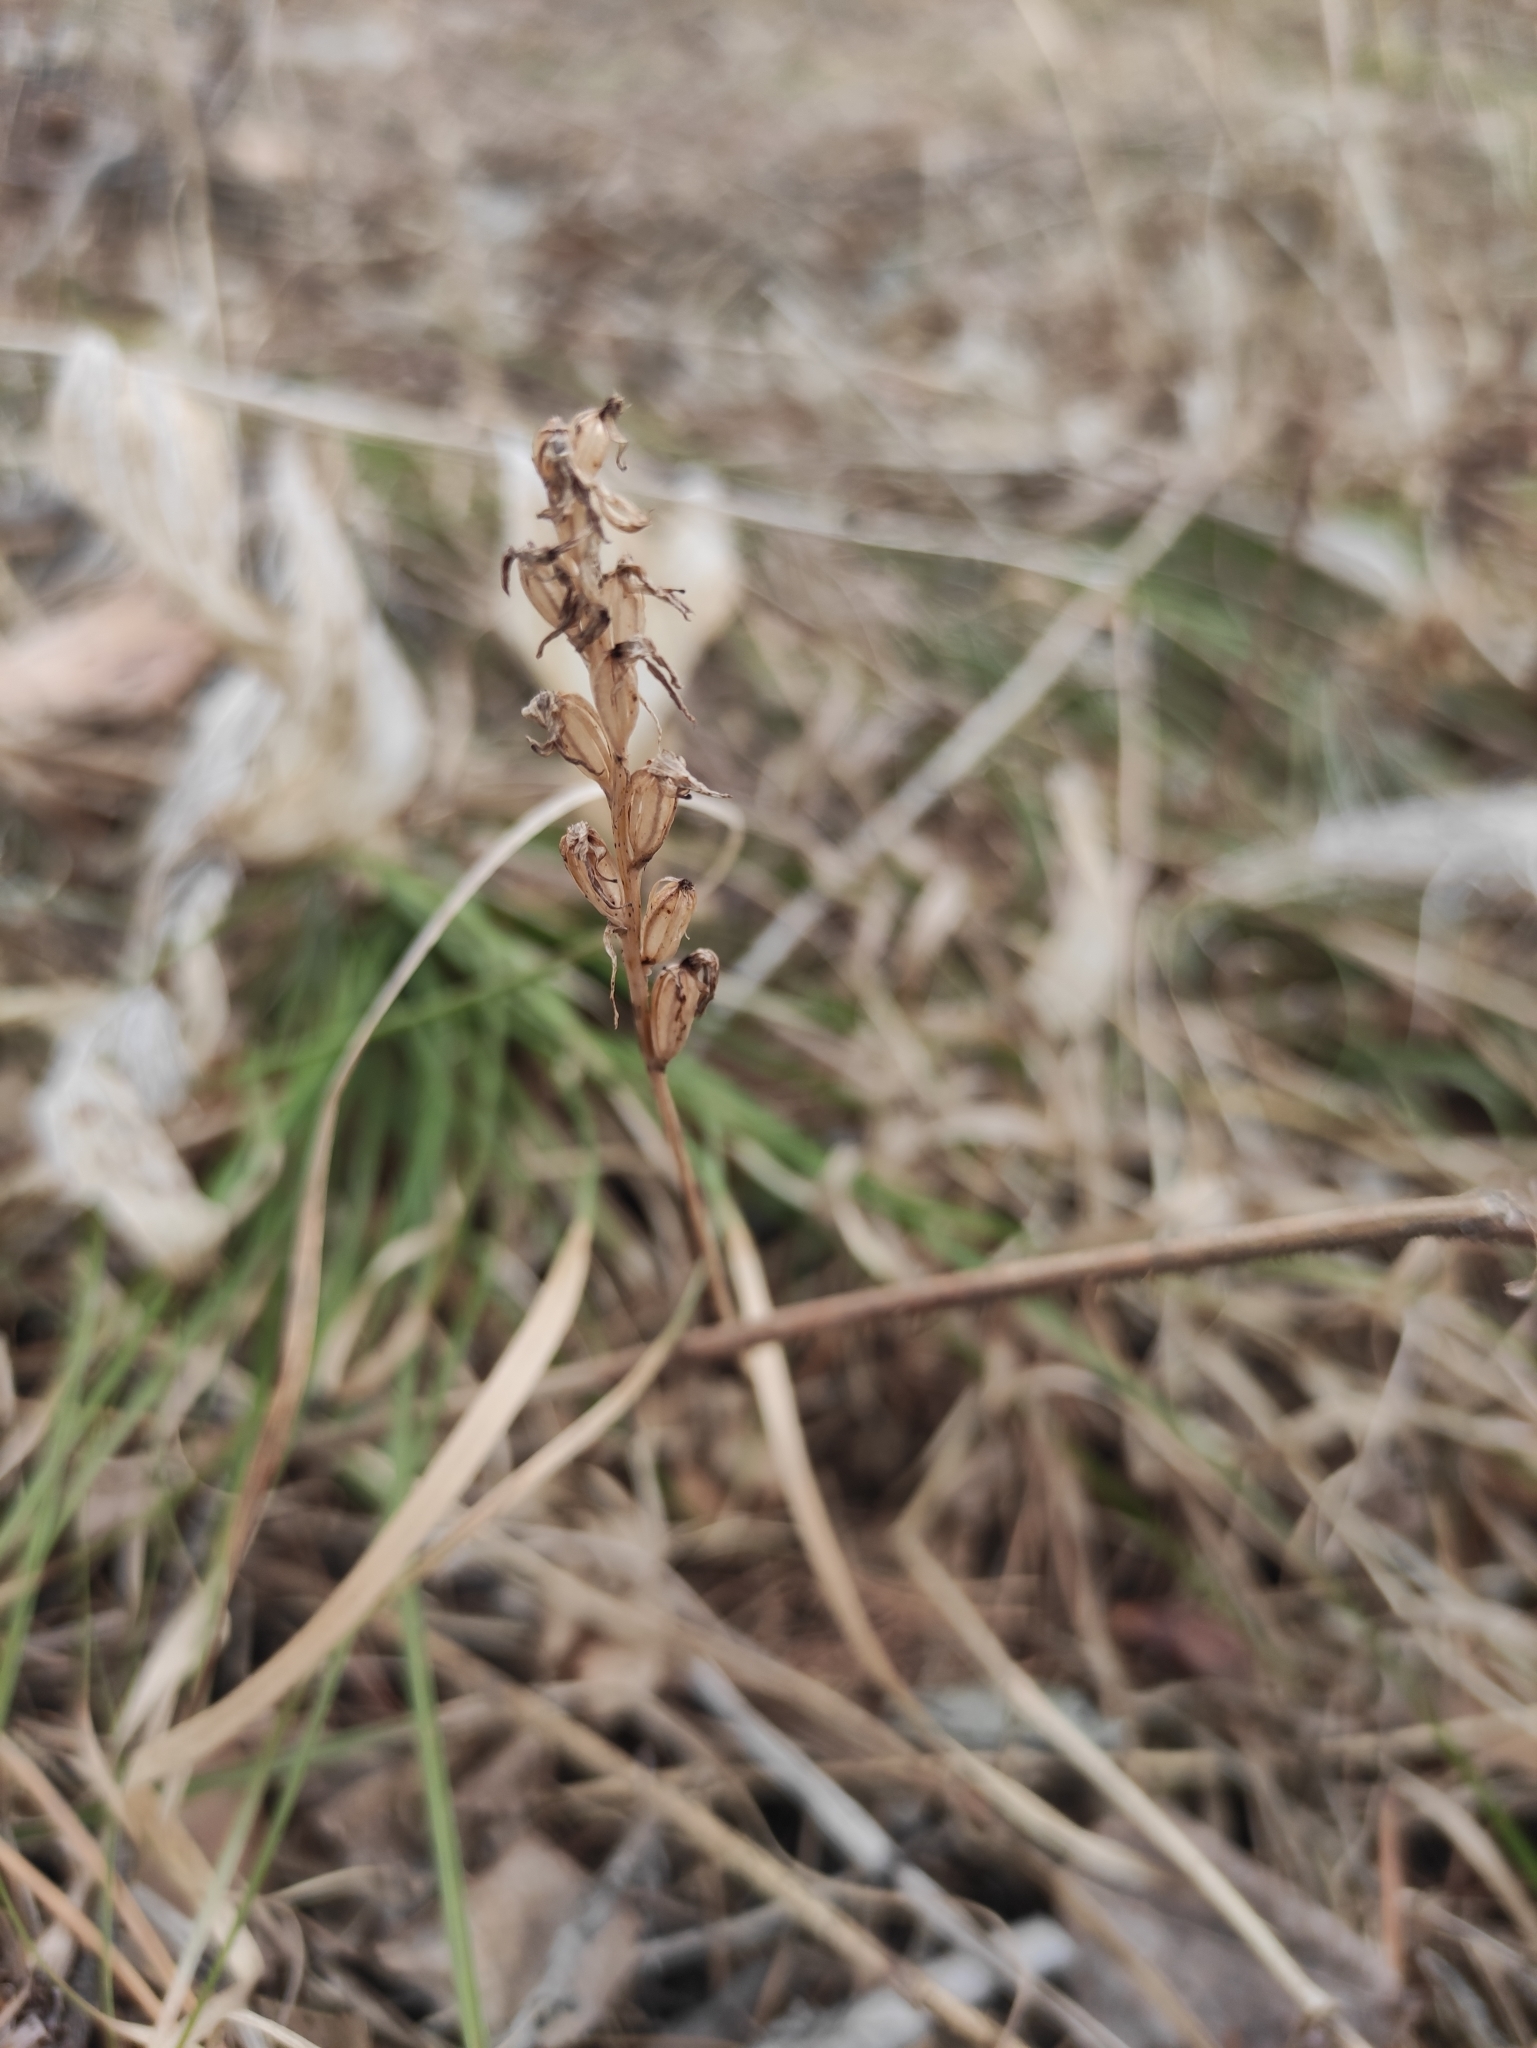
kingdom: Plantae
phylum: Tracheophyta
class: Liliopsida
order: Asparagales
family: Orchidaceae
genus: Hemipilia
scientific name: Hemipilia cucullata
